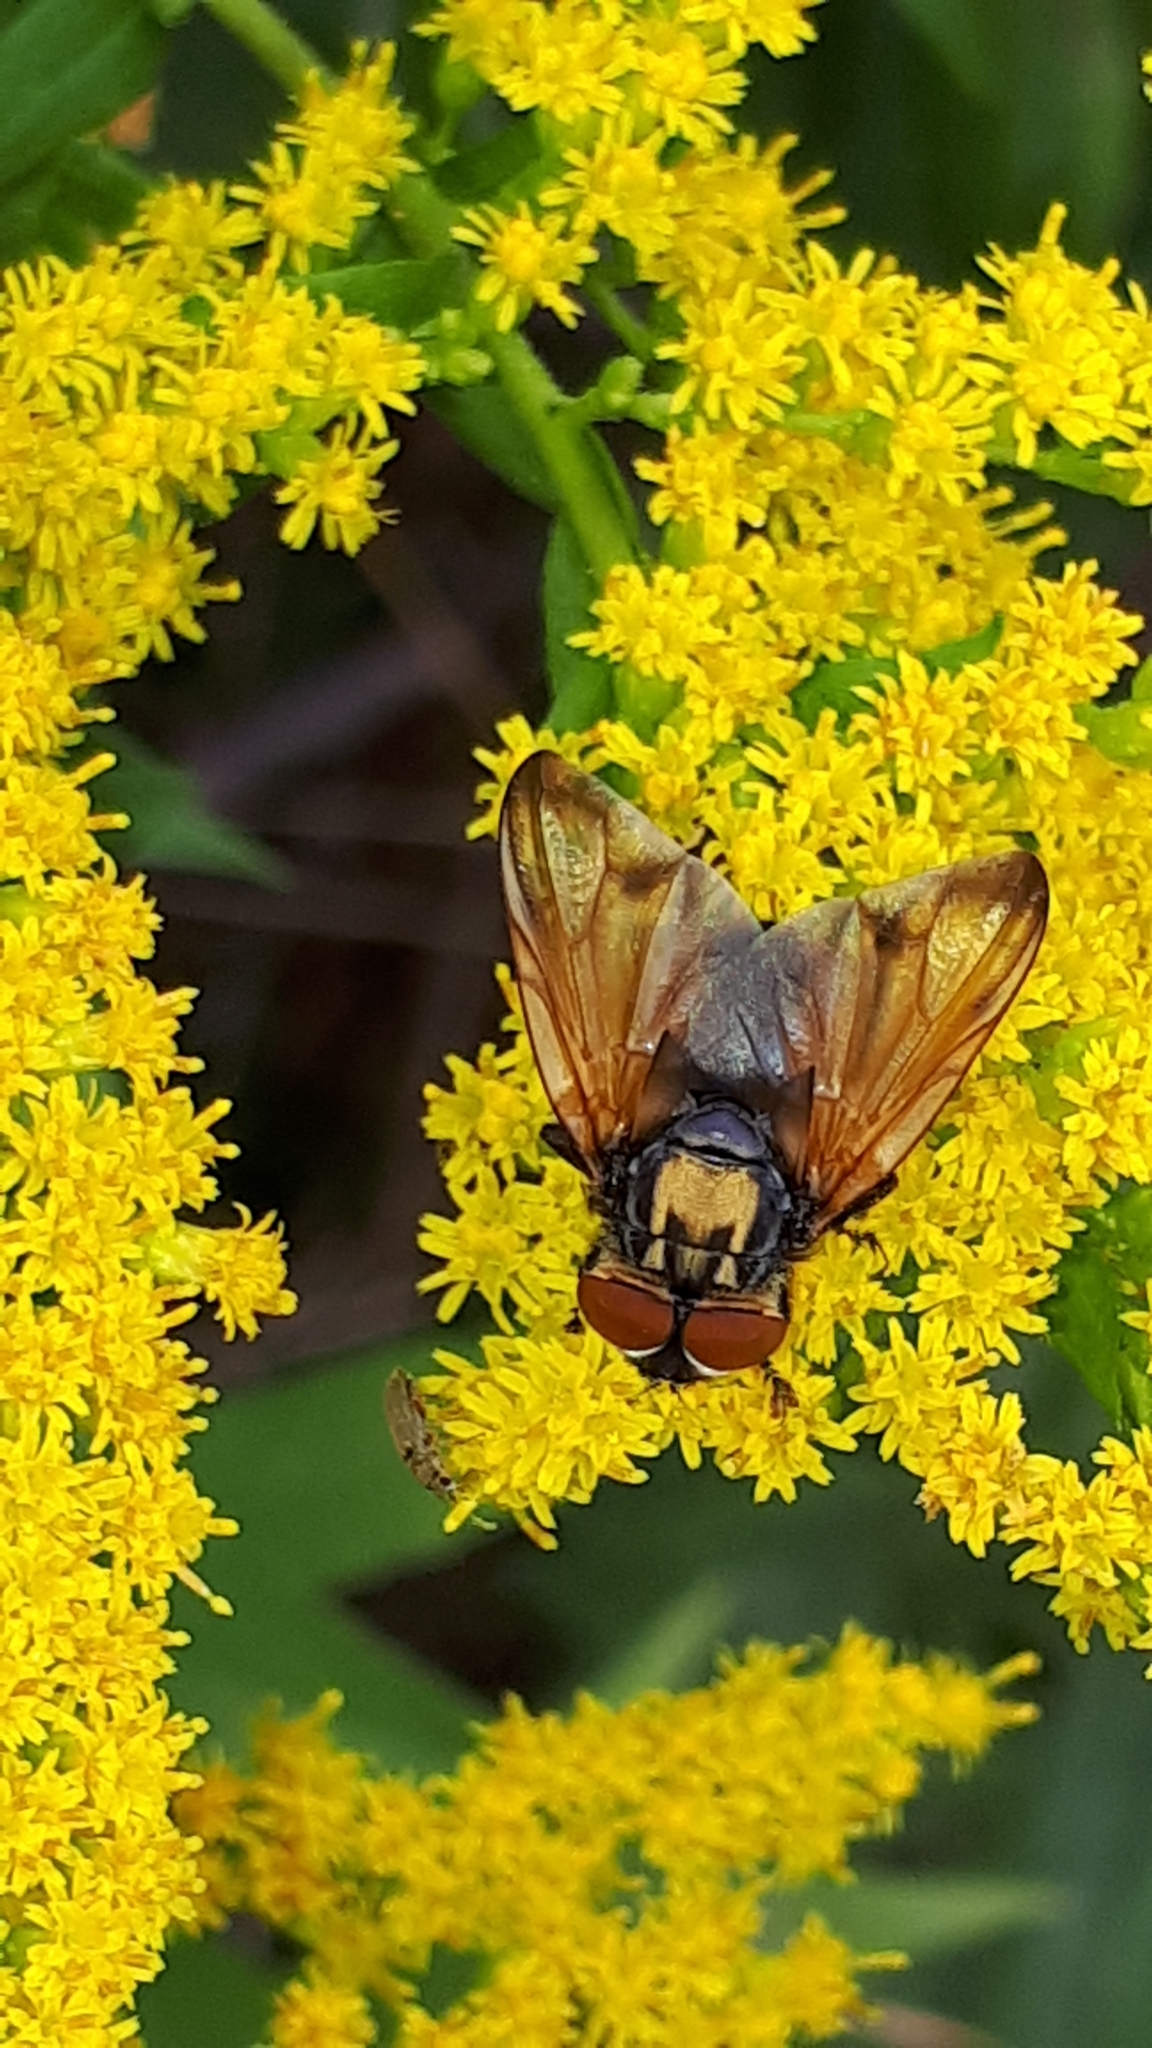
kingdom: Animalia
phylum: Arthropoda
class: Insecta
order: Diptera
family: Tachinidae
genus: Phasia
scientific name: Phasia aurigera
